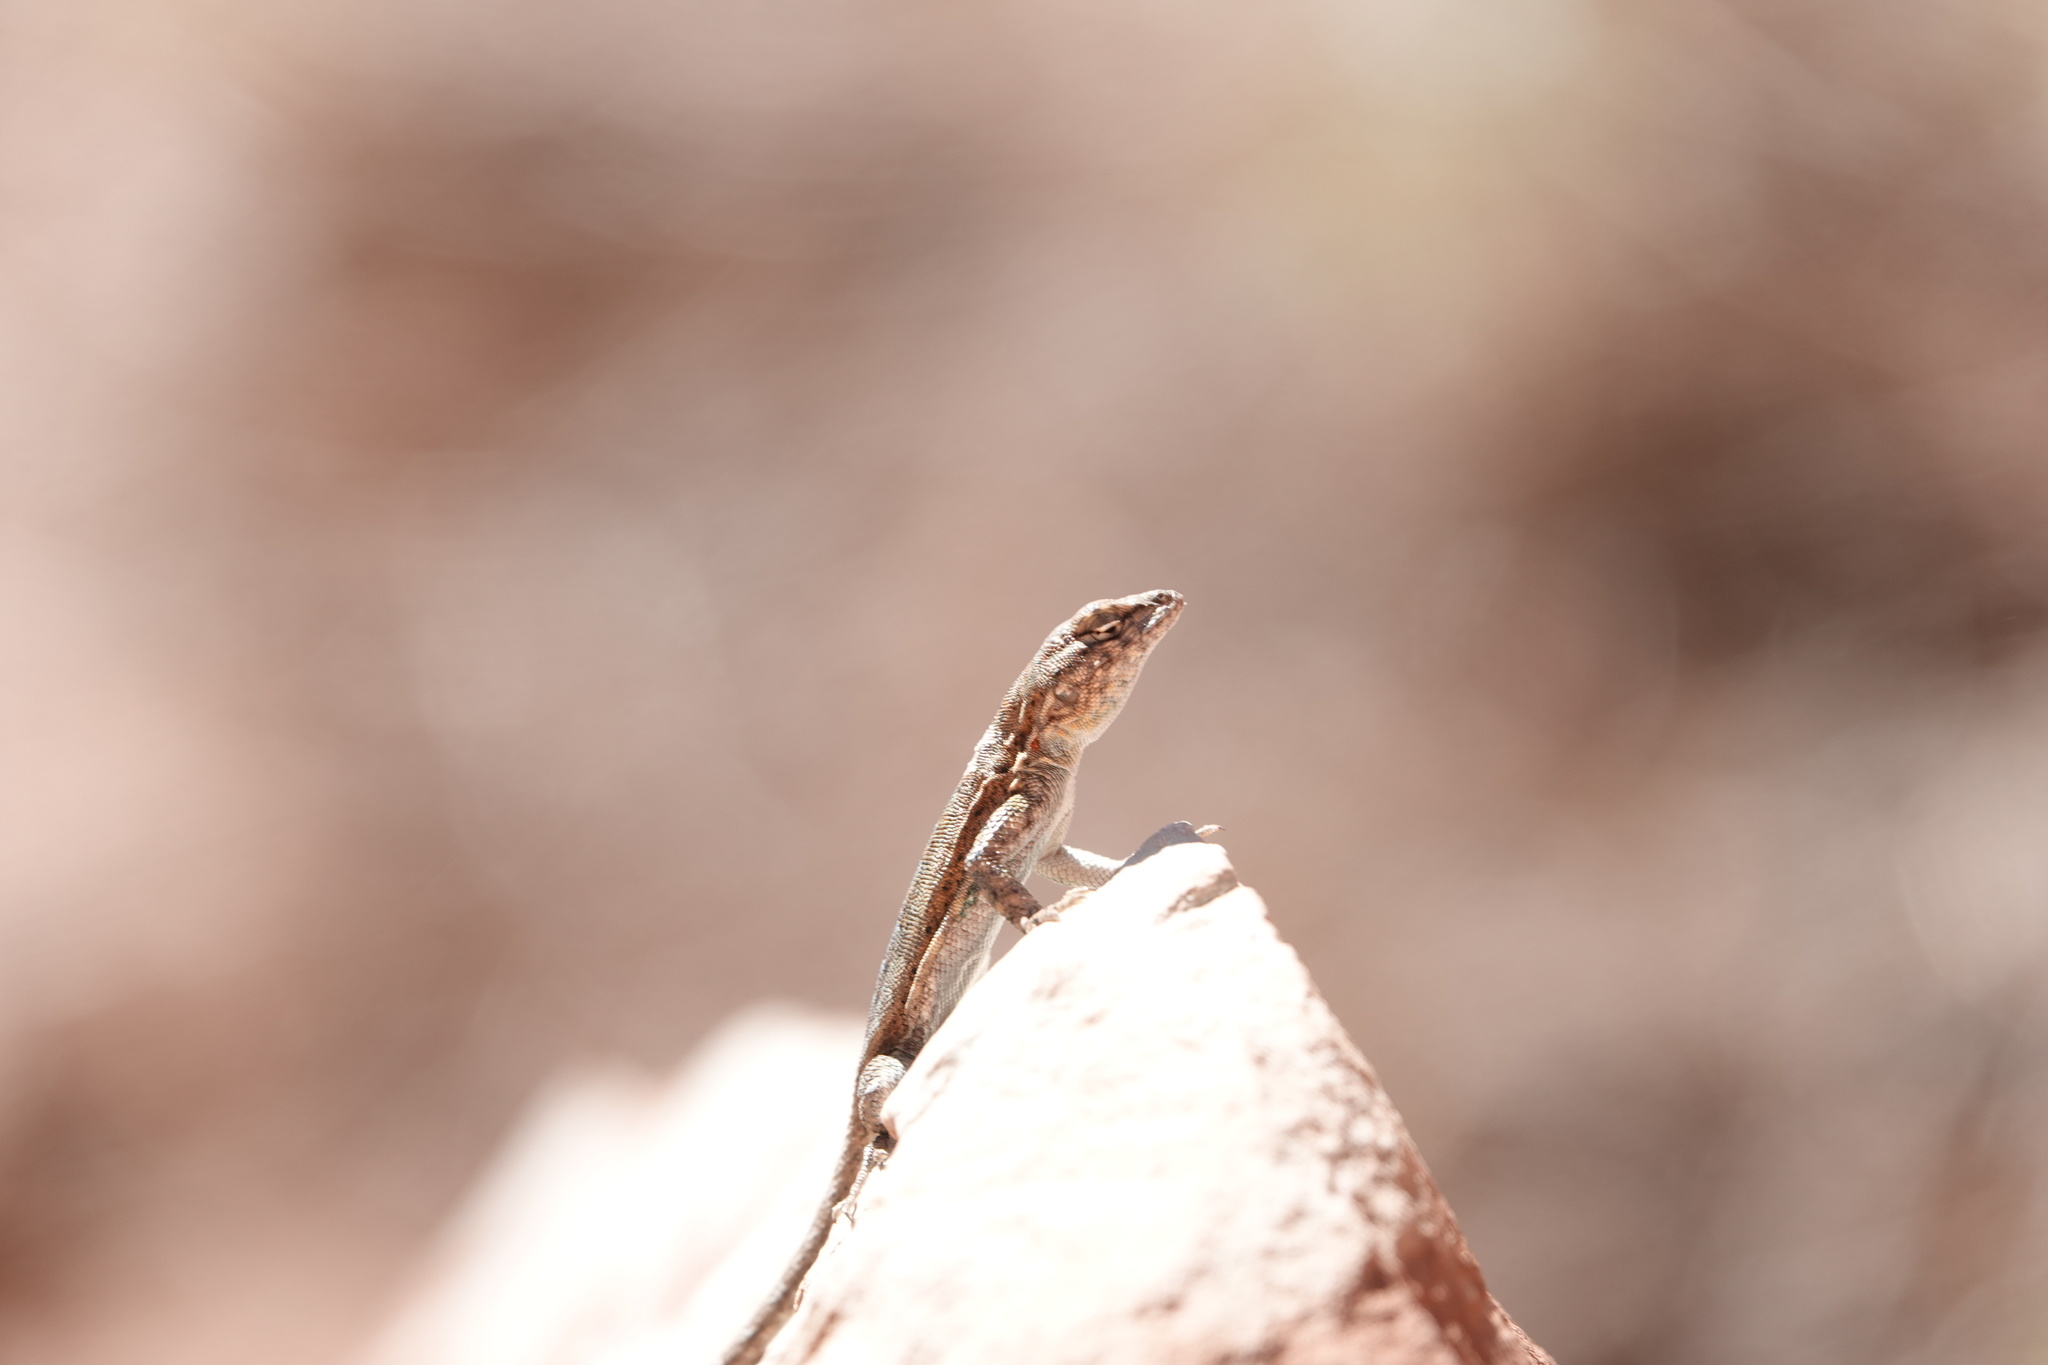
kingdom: Animalia
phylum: Chordata
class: Squamata
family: Phrynosomatidae
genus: Uta
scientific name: Uta stansburiana
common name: Side-blotched lizard
